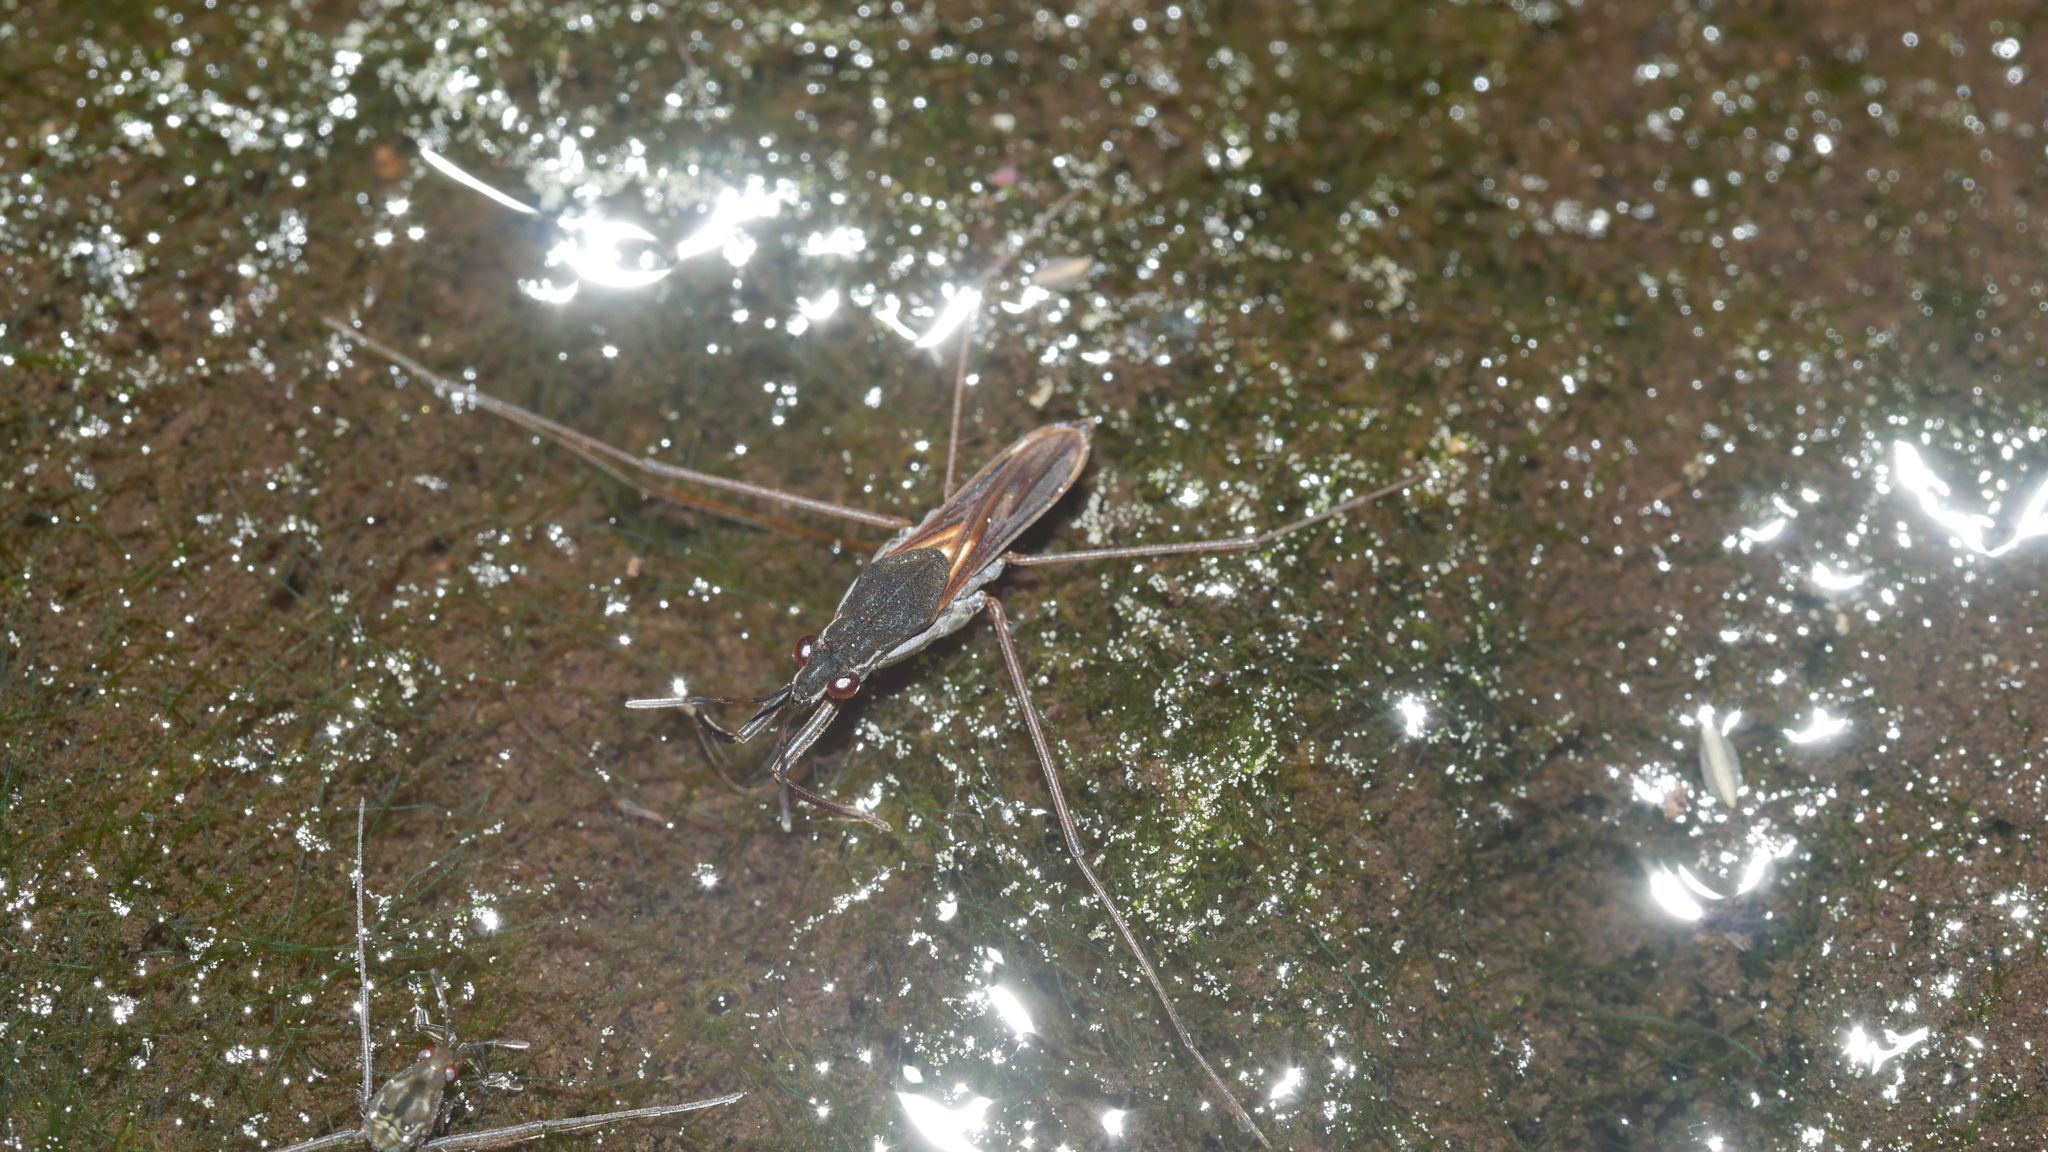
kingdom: Animalia
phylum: Arthropoda
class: Insecta
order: Hemiptera
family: Gerridae
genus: Gerris
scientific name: Gerris argenticollis
